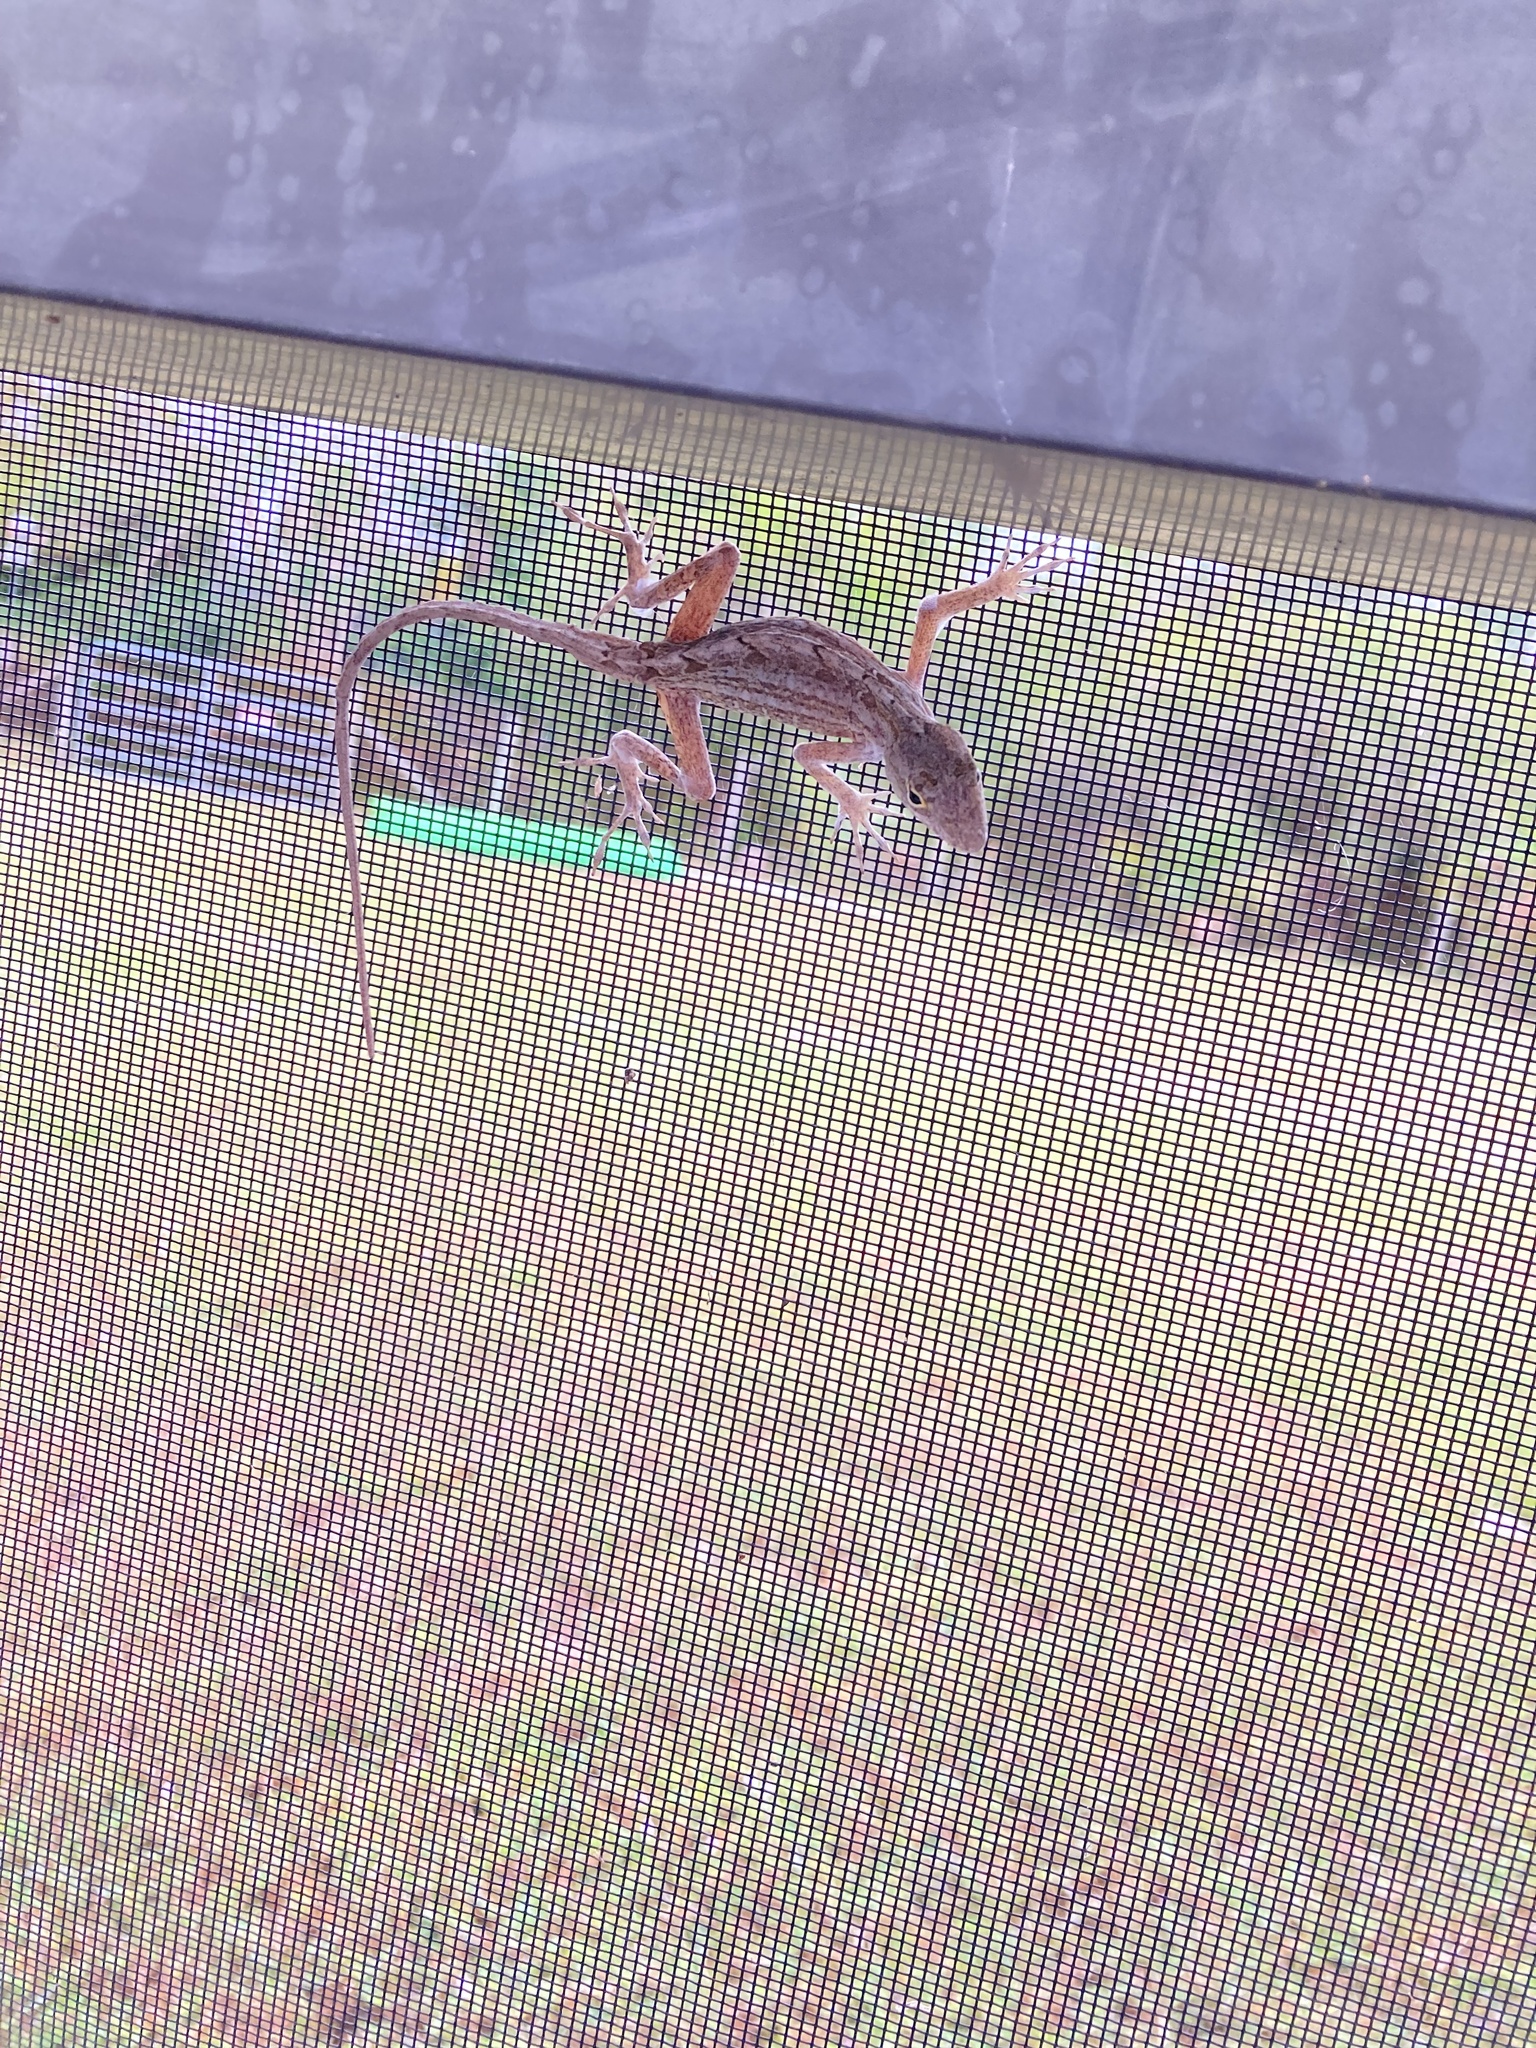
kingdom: Animalia
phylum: Chordata
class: Squamata
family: Dactyloidae
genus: Anolis
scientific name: Anolis sagrei
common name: Brown anole
